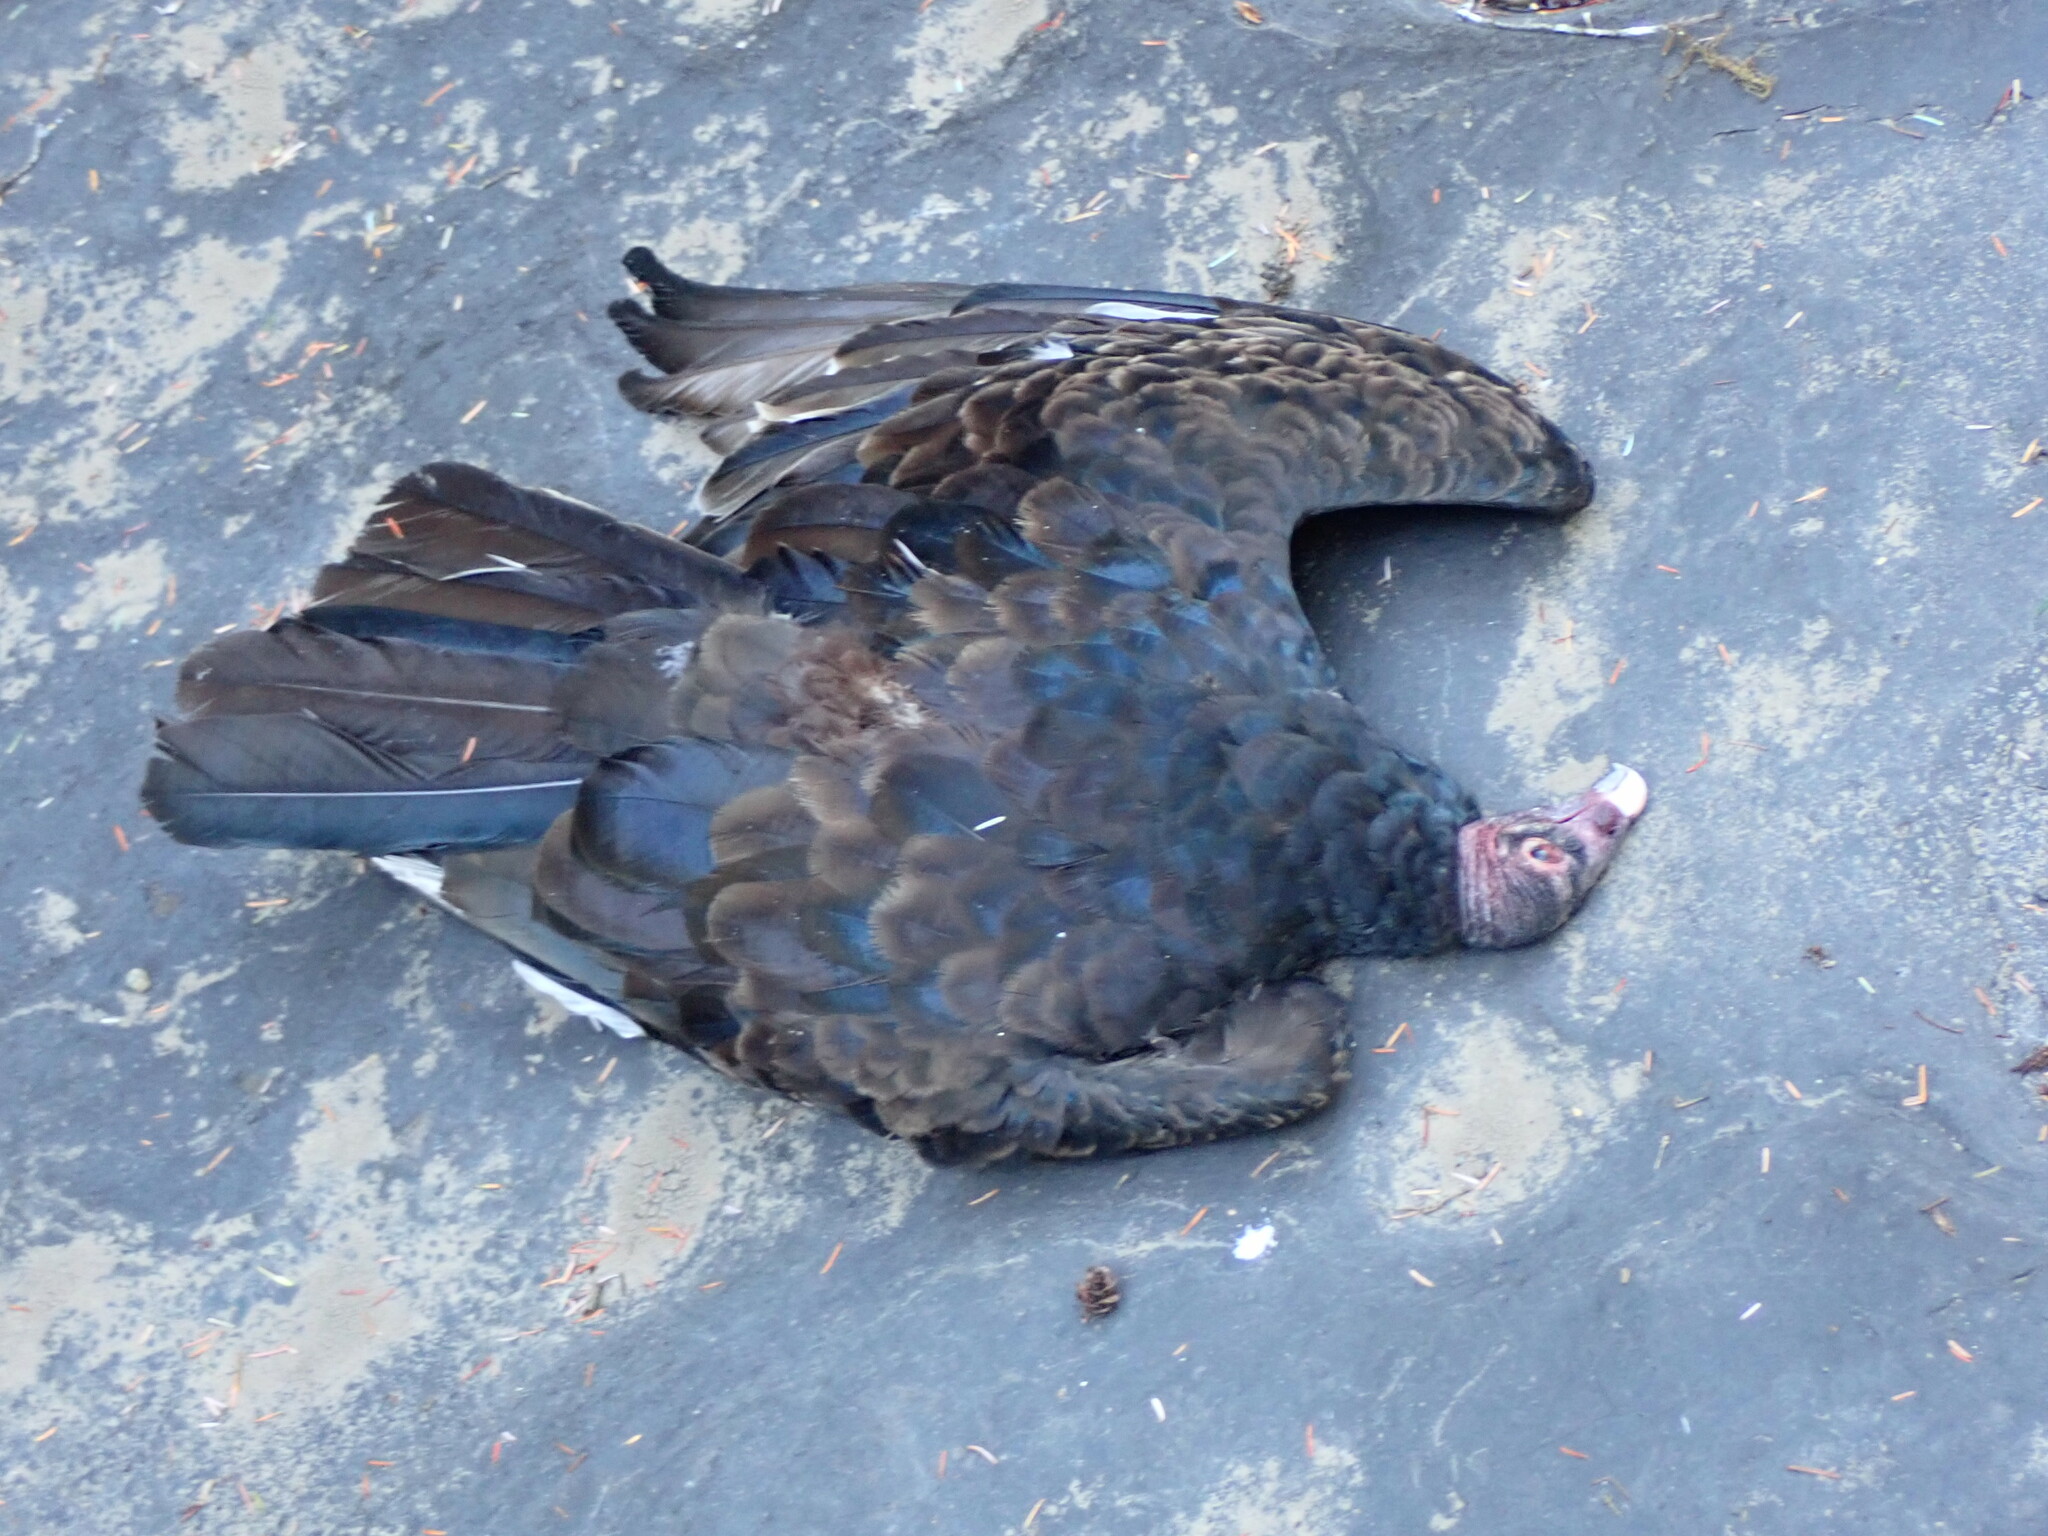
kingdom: Animalia
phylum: Chordata
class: Aves
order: Accipitriformes
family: Cathartidae
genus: Cathartes
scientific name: Cathartes aura
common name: Turkey vulture
